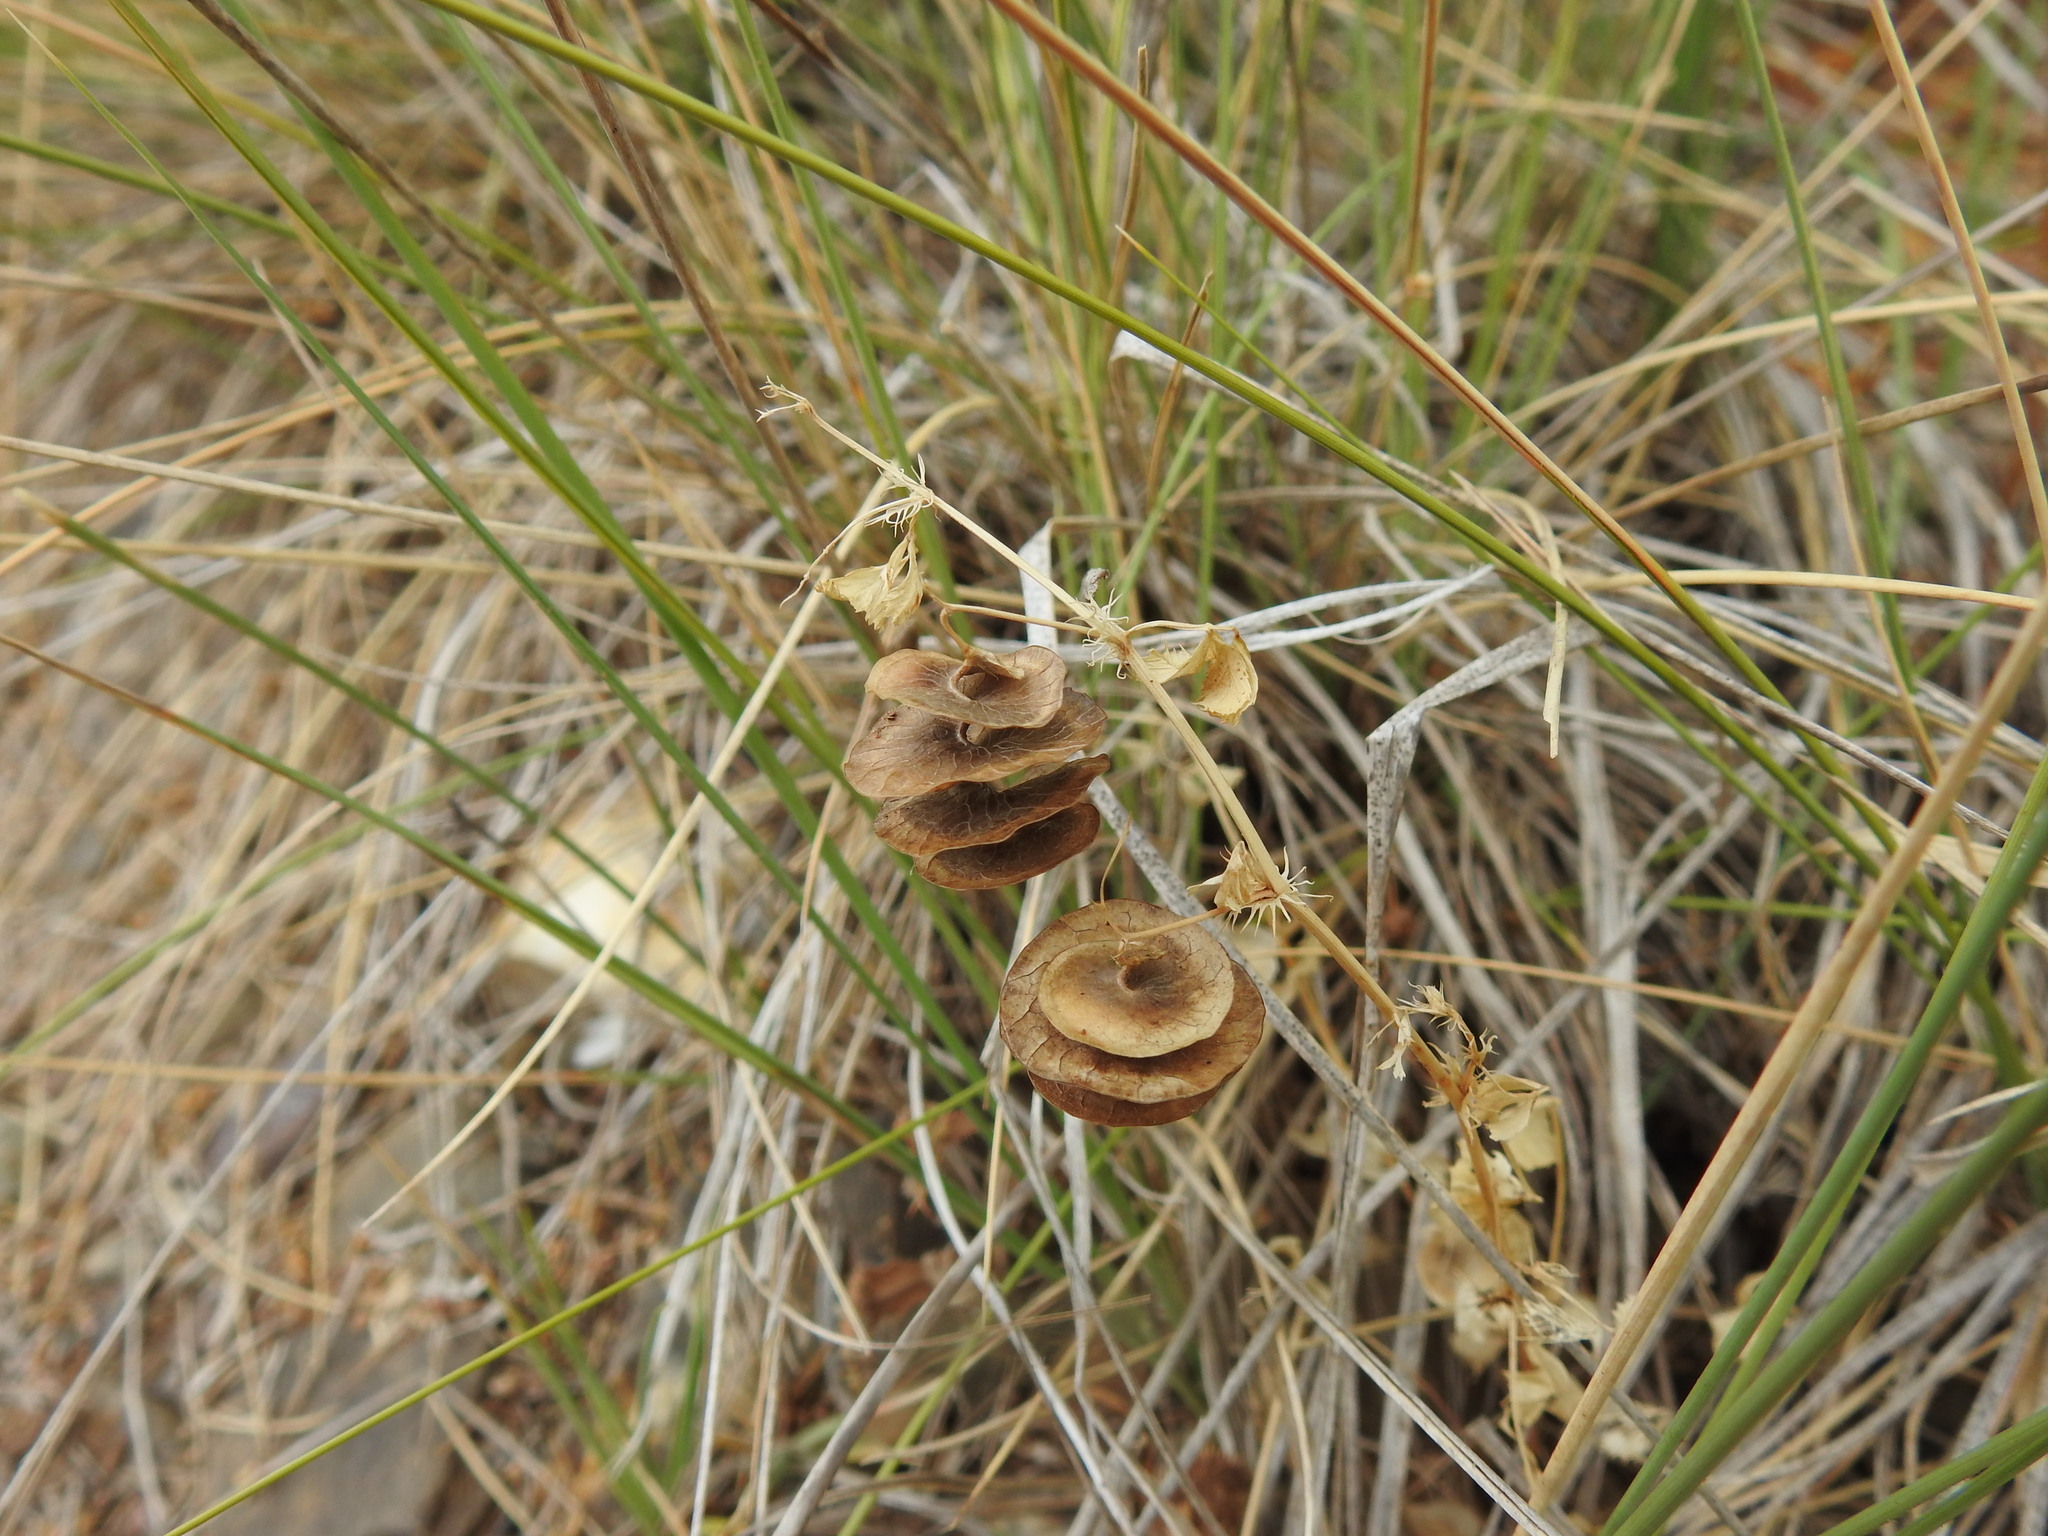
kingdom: Plantae
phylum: Tracheophyta
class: Magnoliopsida
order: Fabales
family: Fabaceae
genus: Medicago
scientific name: Medicago orbicularis
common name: Button medick
